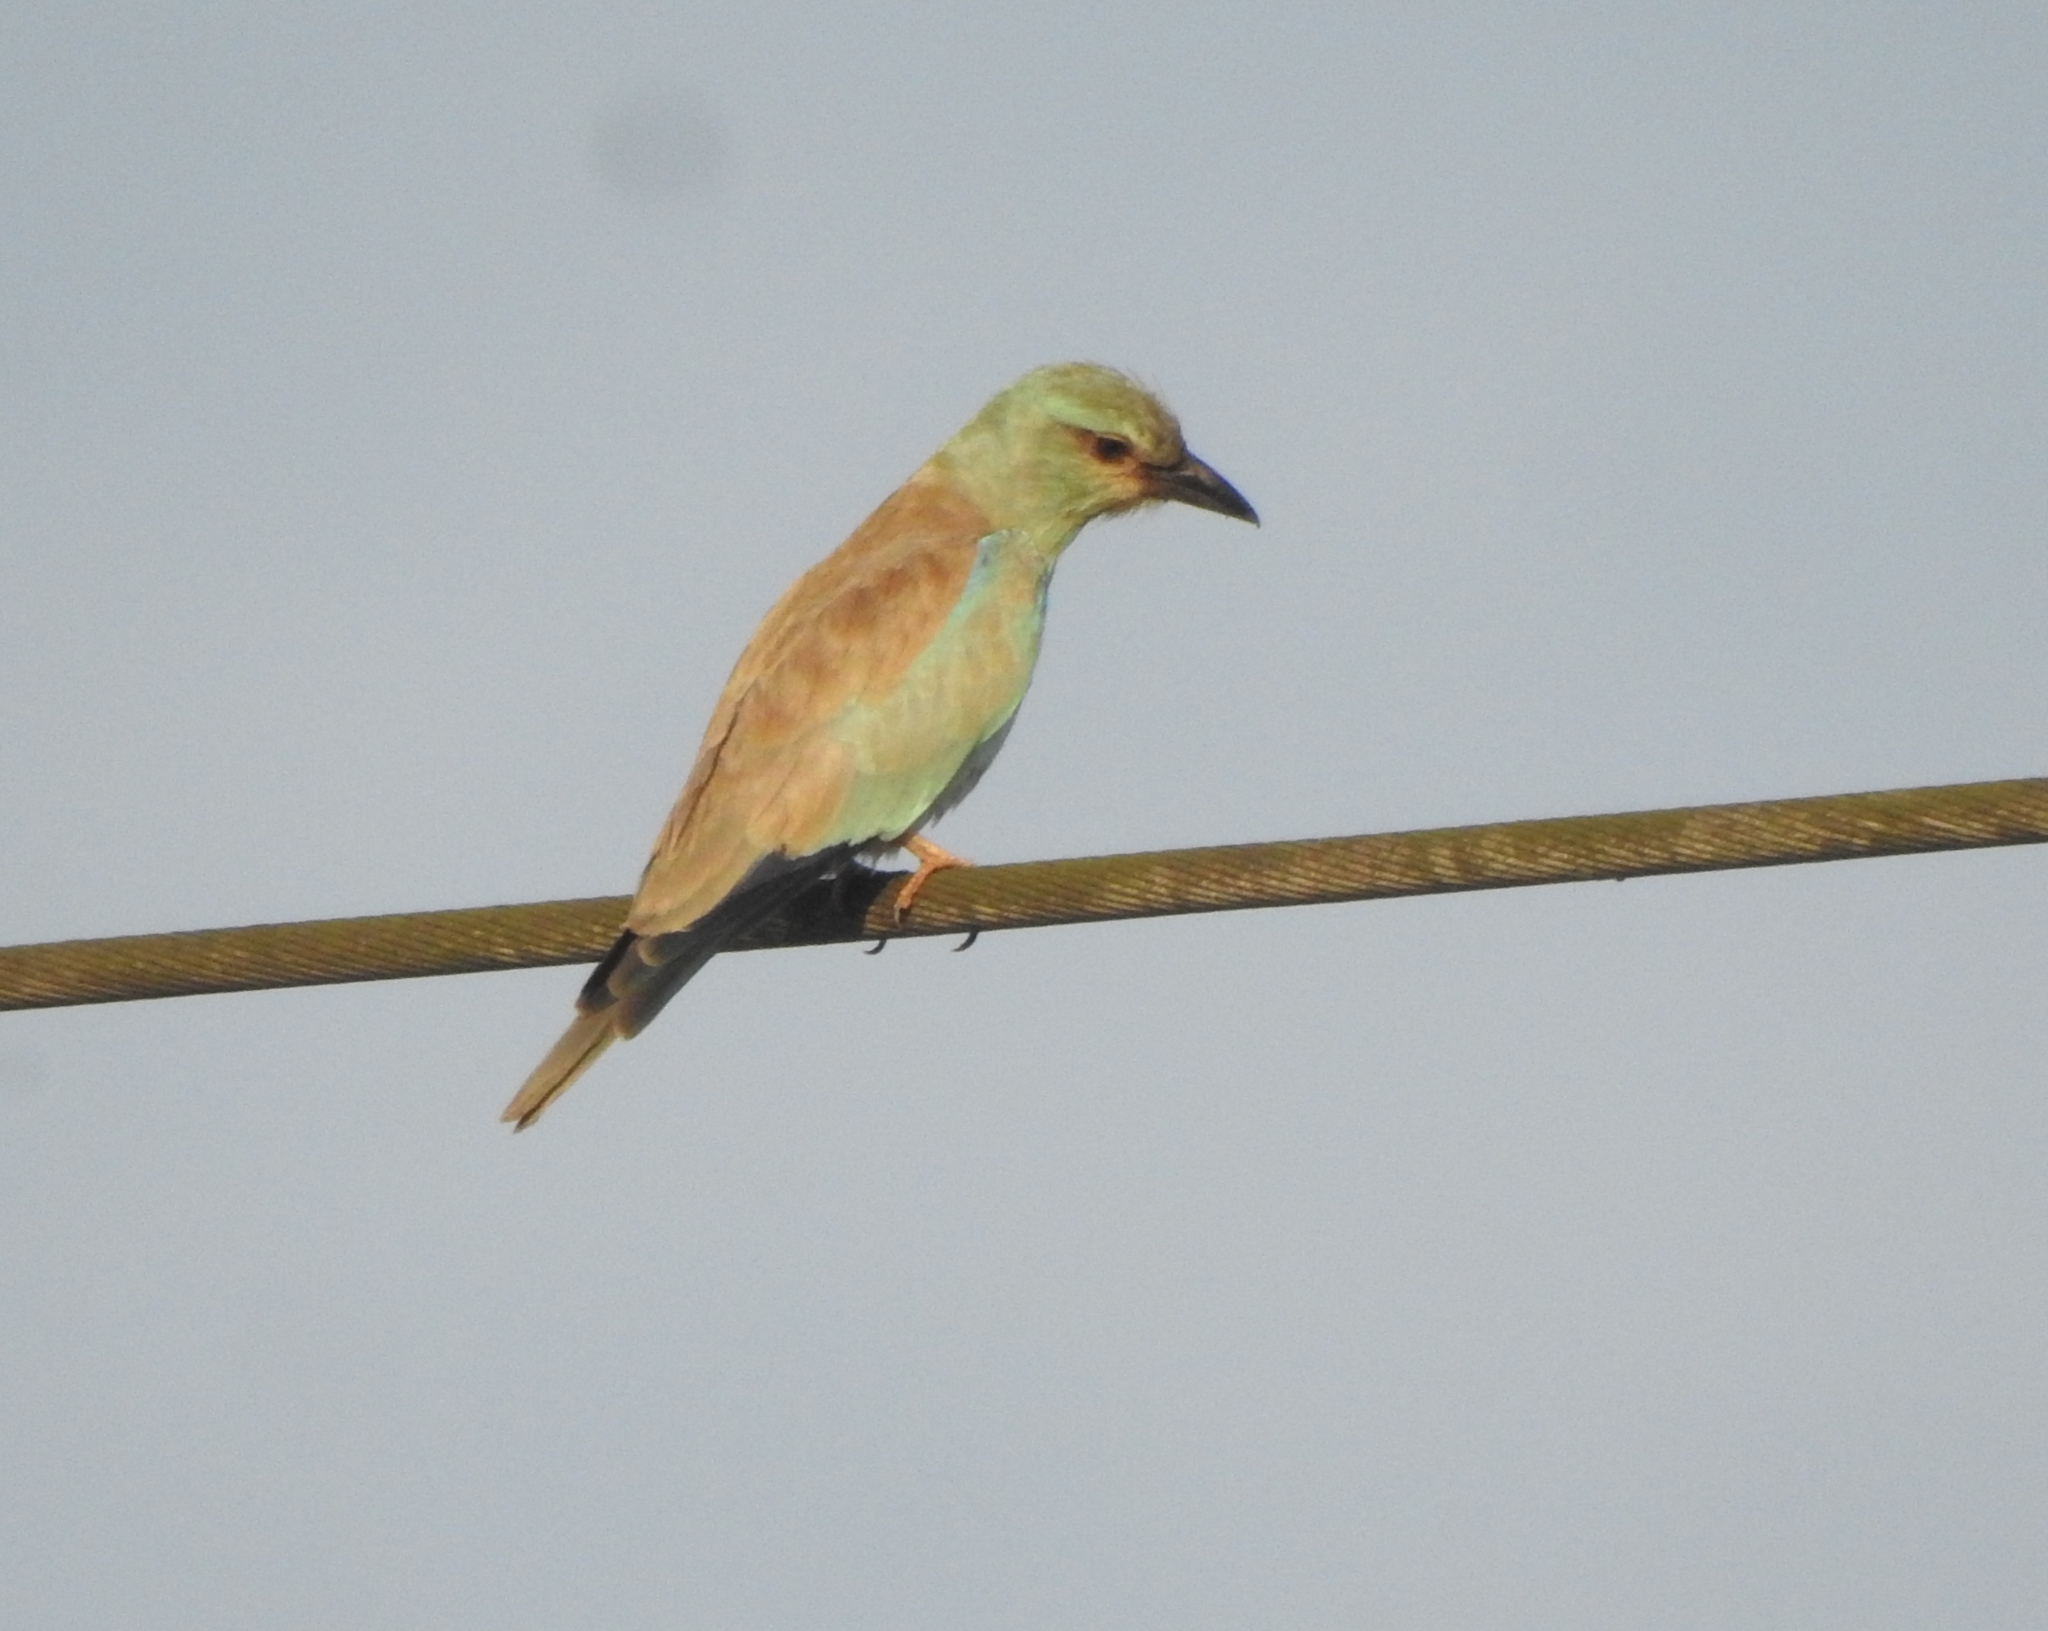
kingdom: Animalia
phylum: Chordata
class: Aves
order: Coraciiformes
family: Coraciidae
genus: Coracias
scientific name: Coracias garrulus
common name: European roller
